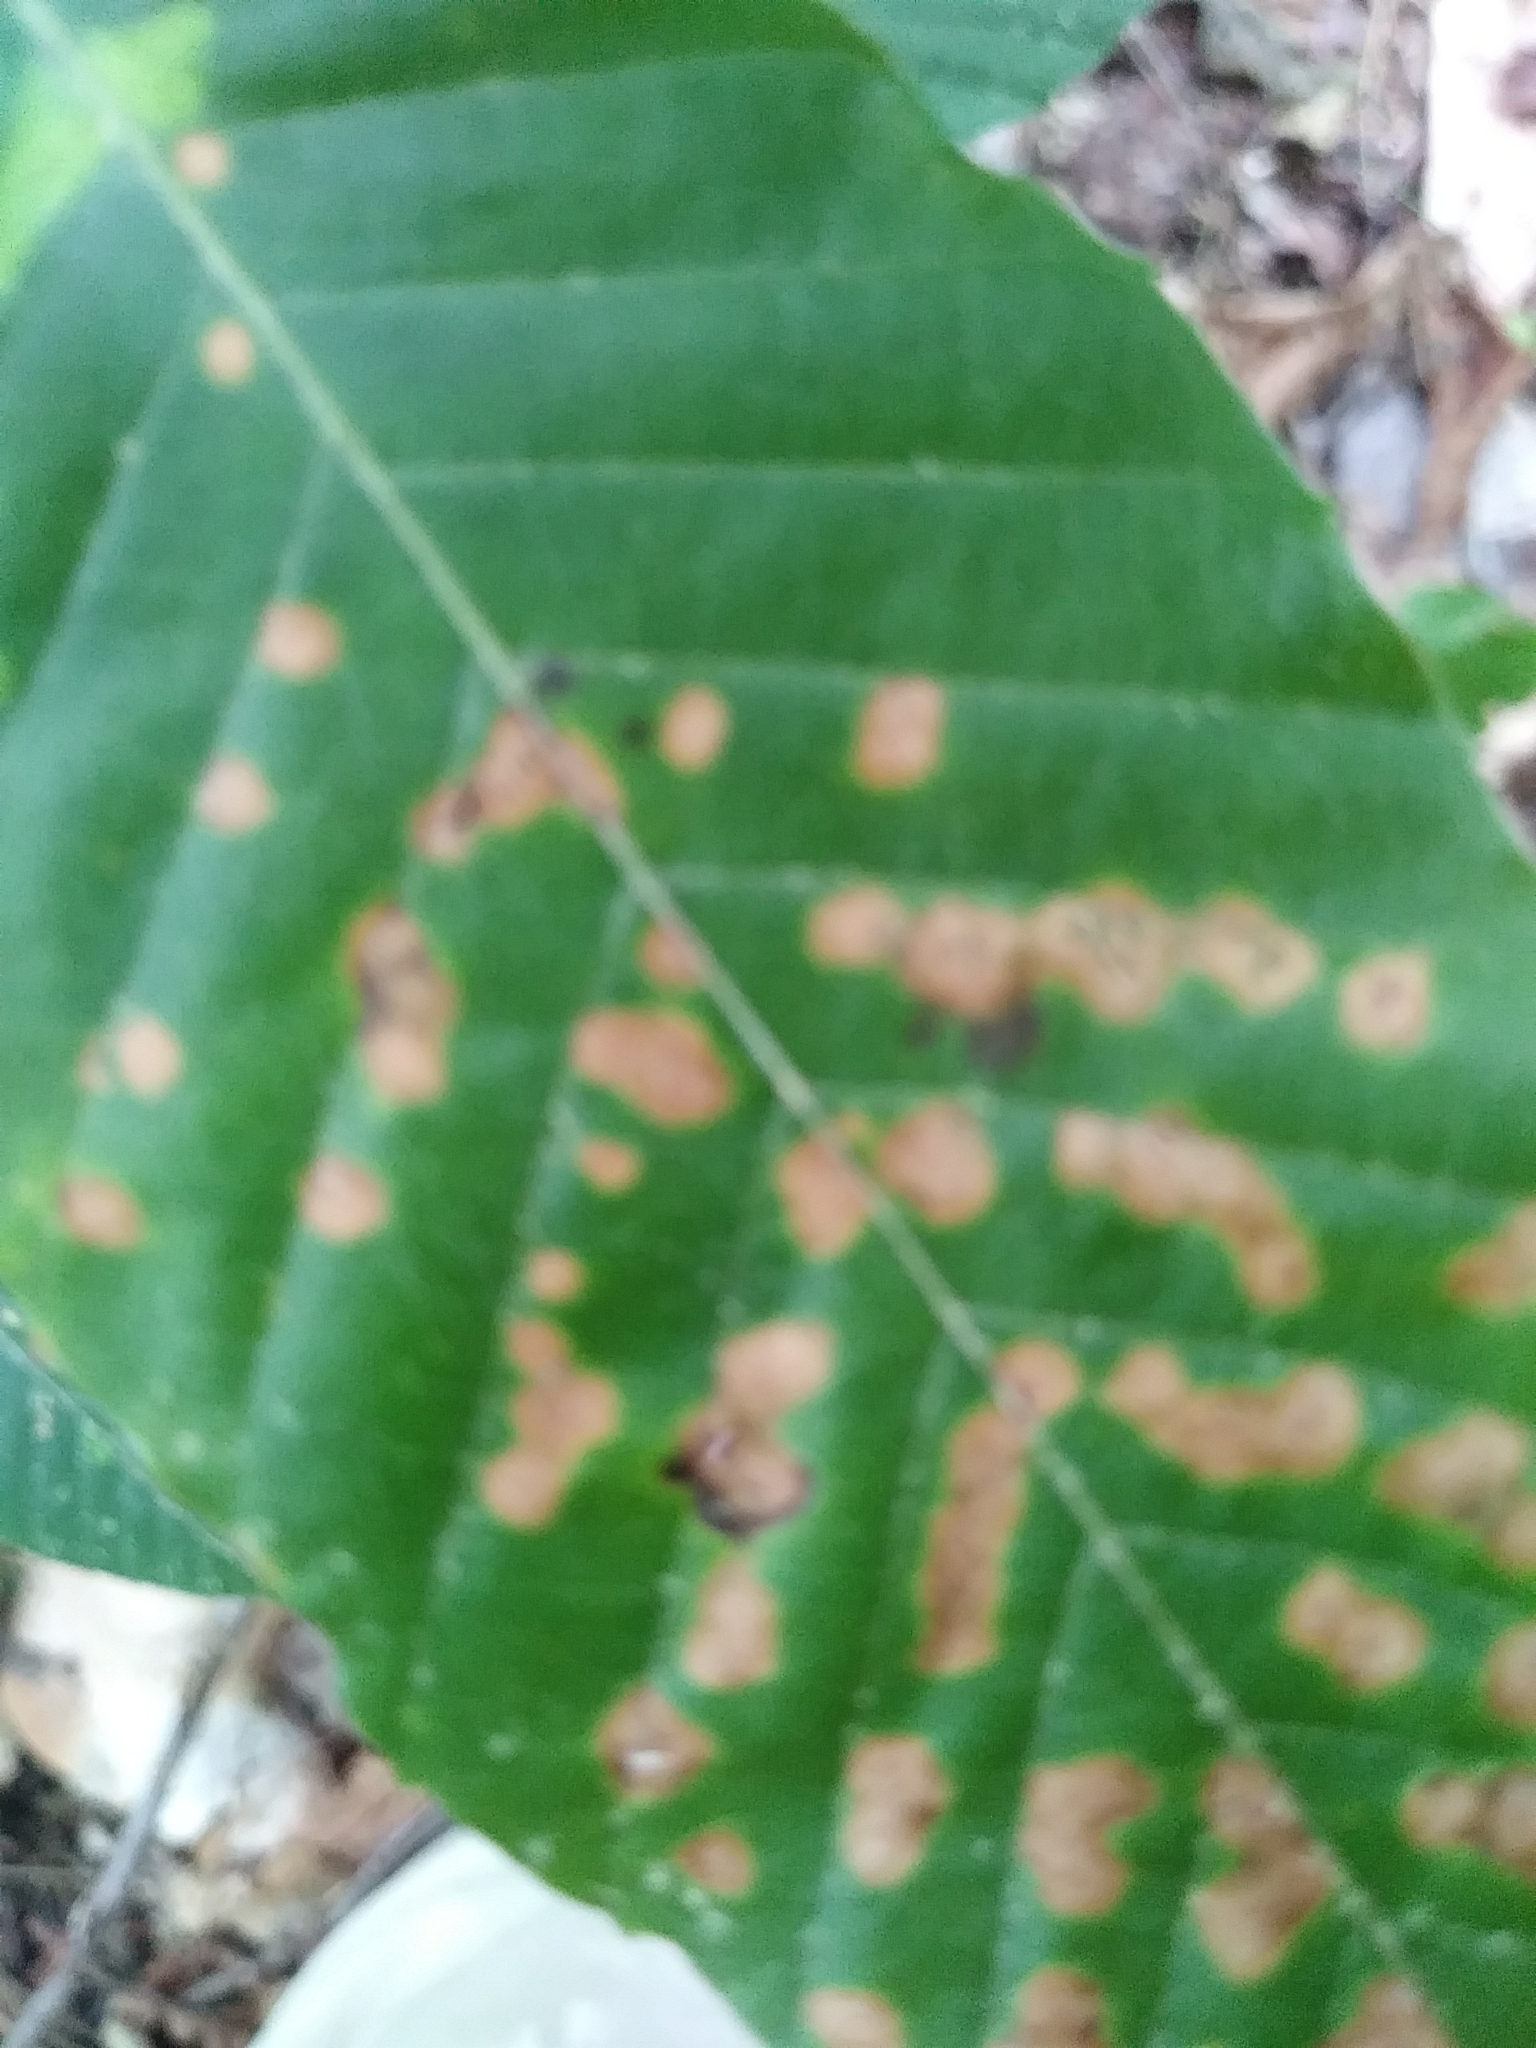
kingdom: Plantae
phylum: Tracheophyta
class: Magnoliopsida
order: Fagales
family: Fagaceae
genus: Fagus
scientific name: Fagus grandifolia
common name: American beech
